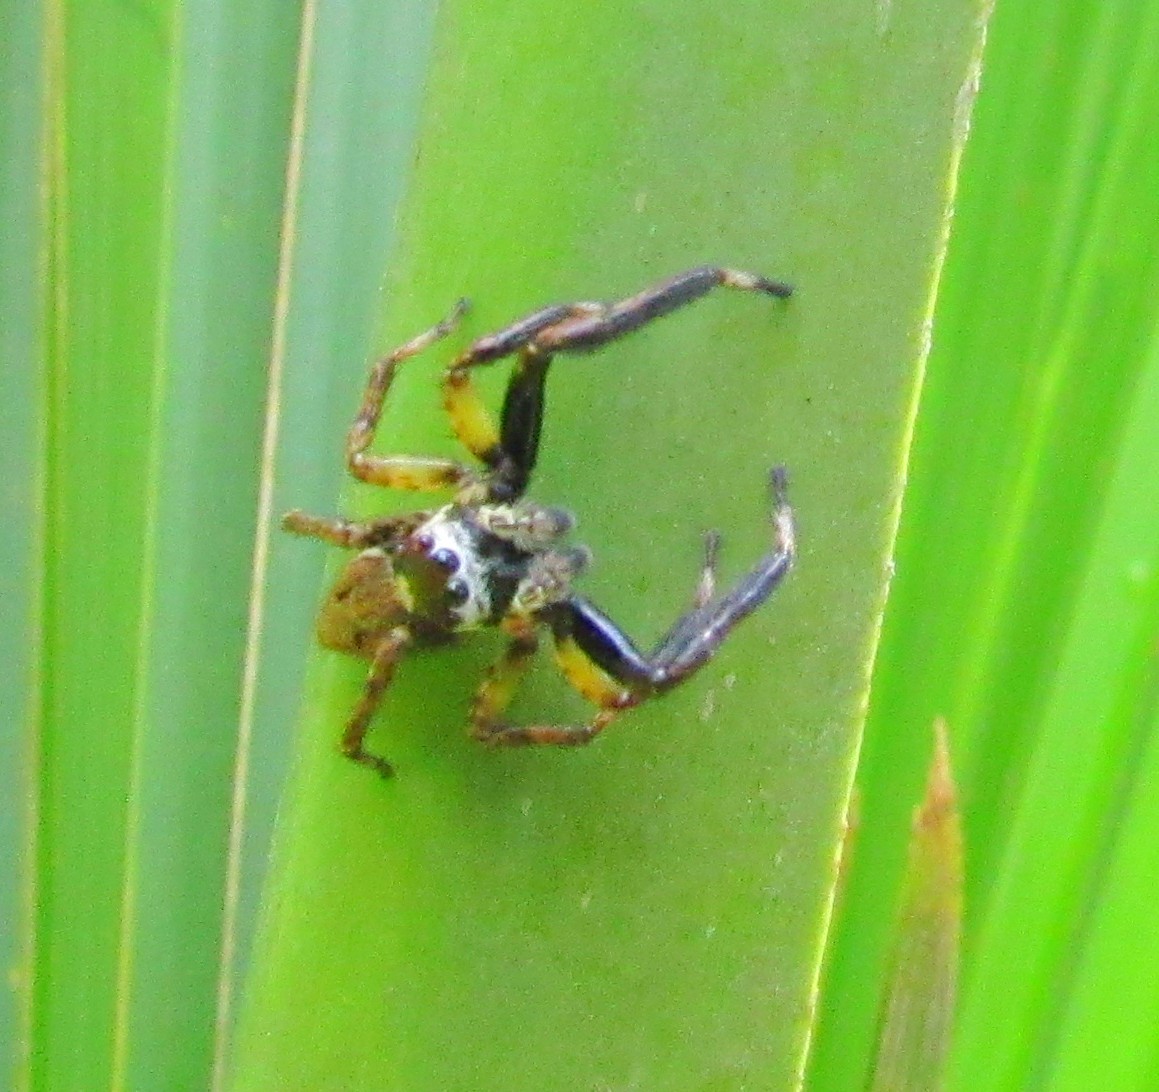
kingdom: Animalia
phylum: Arthropoda
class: Arachnida
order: Araneae
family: Salticidae
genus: Asaphobelis
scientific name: Asaphobelis physonychus
